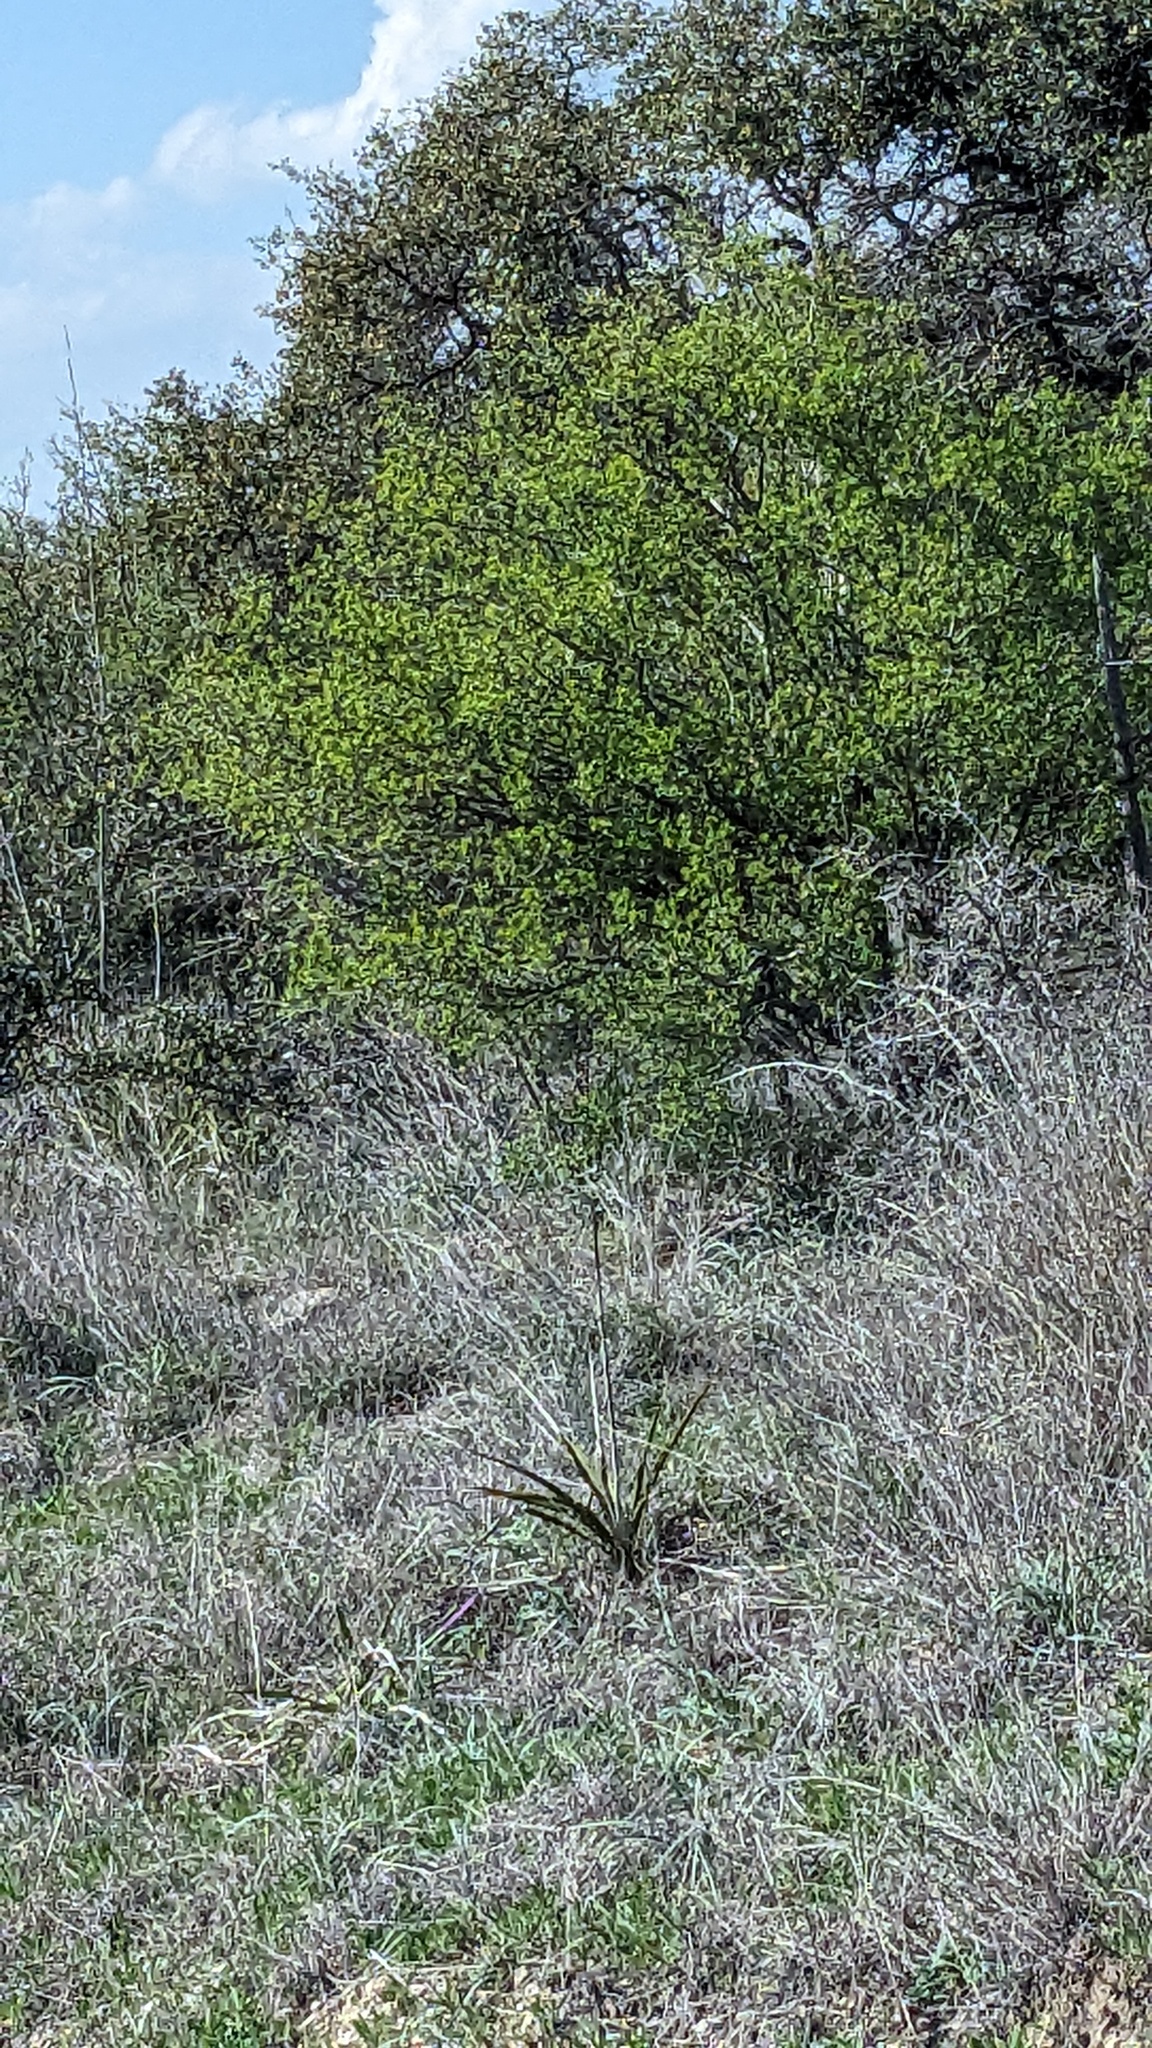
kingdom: Plantae
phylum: Tracheophyta
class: Magnoliopsida
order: Ericales
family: Ebenaceae
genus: Diospyros
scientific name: Diospyros texana
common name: Texas persimmon
